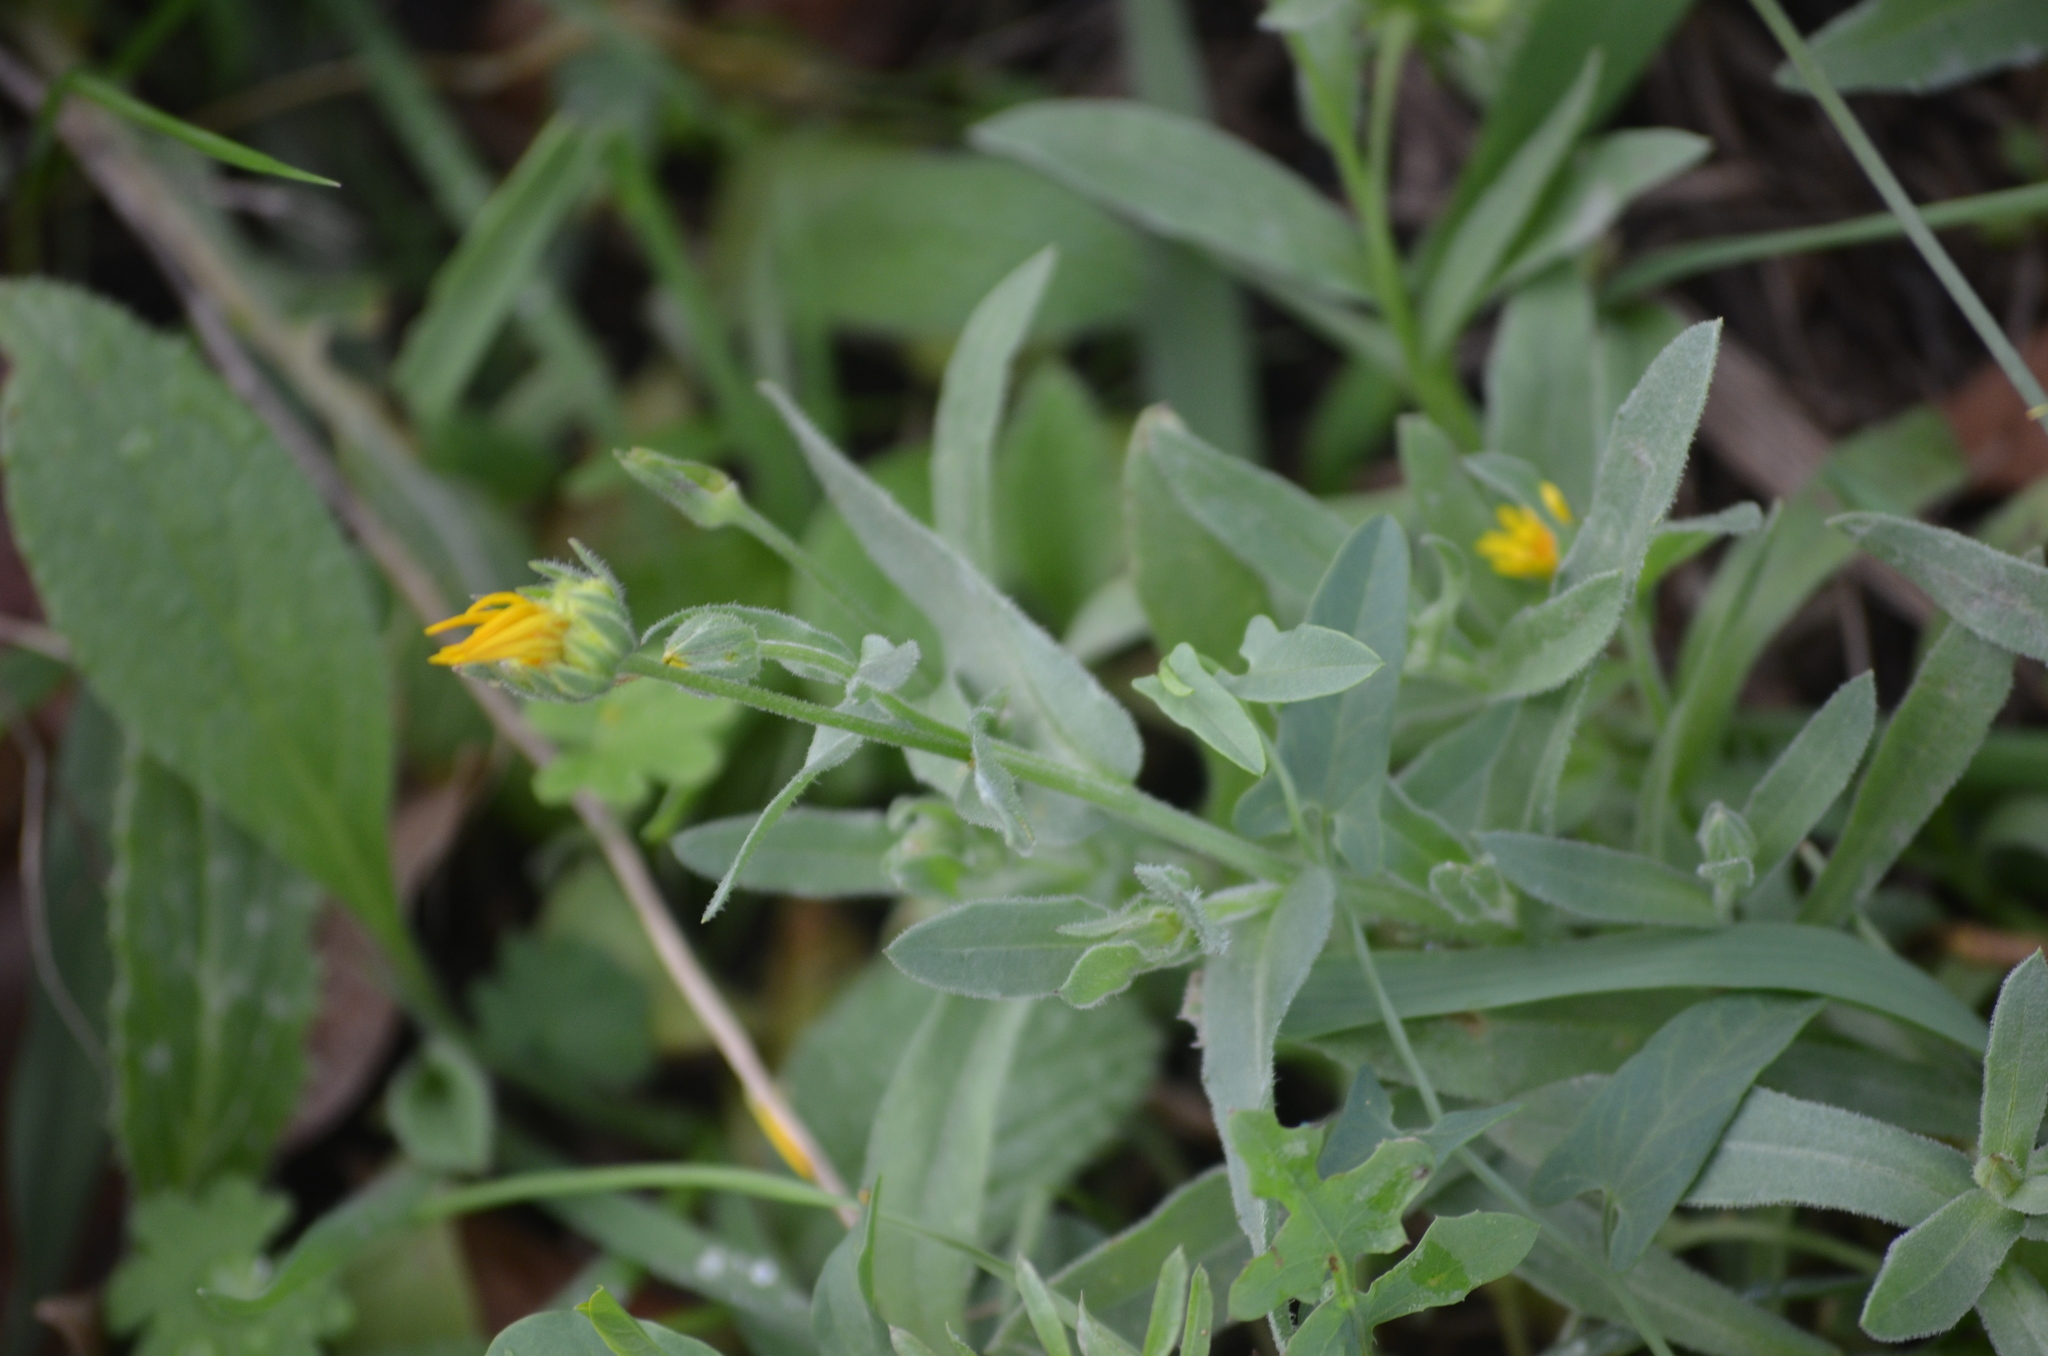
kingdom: Plantae
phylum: Tracheophyta
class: Magnoliopsida
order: Asterales
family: Asteraceae
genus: Calendula
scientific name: Calendula arvensis
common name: Field marigold
